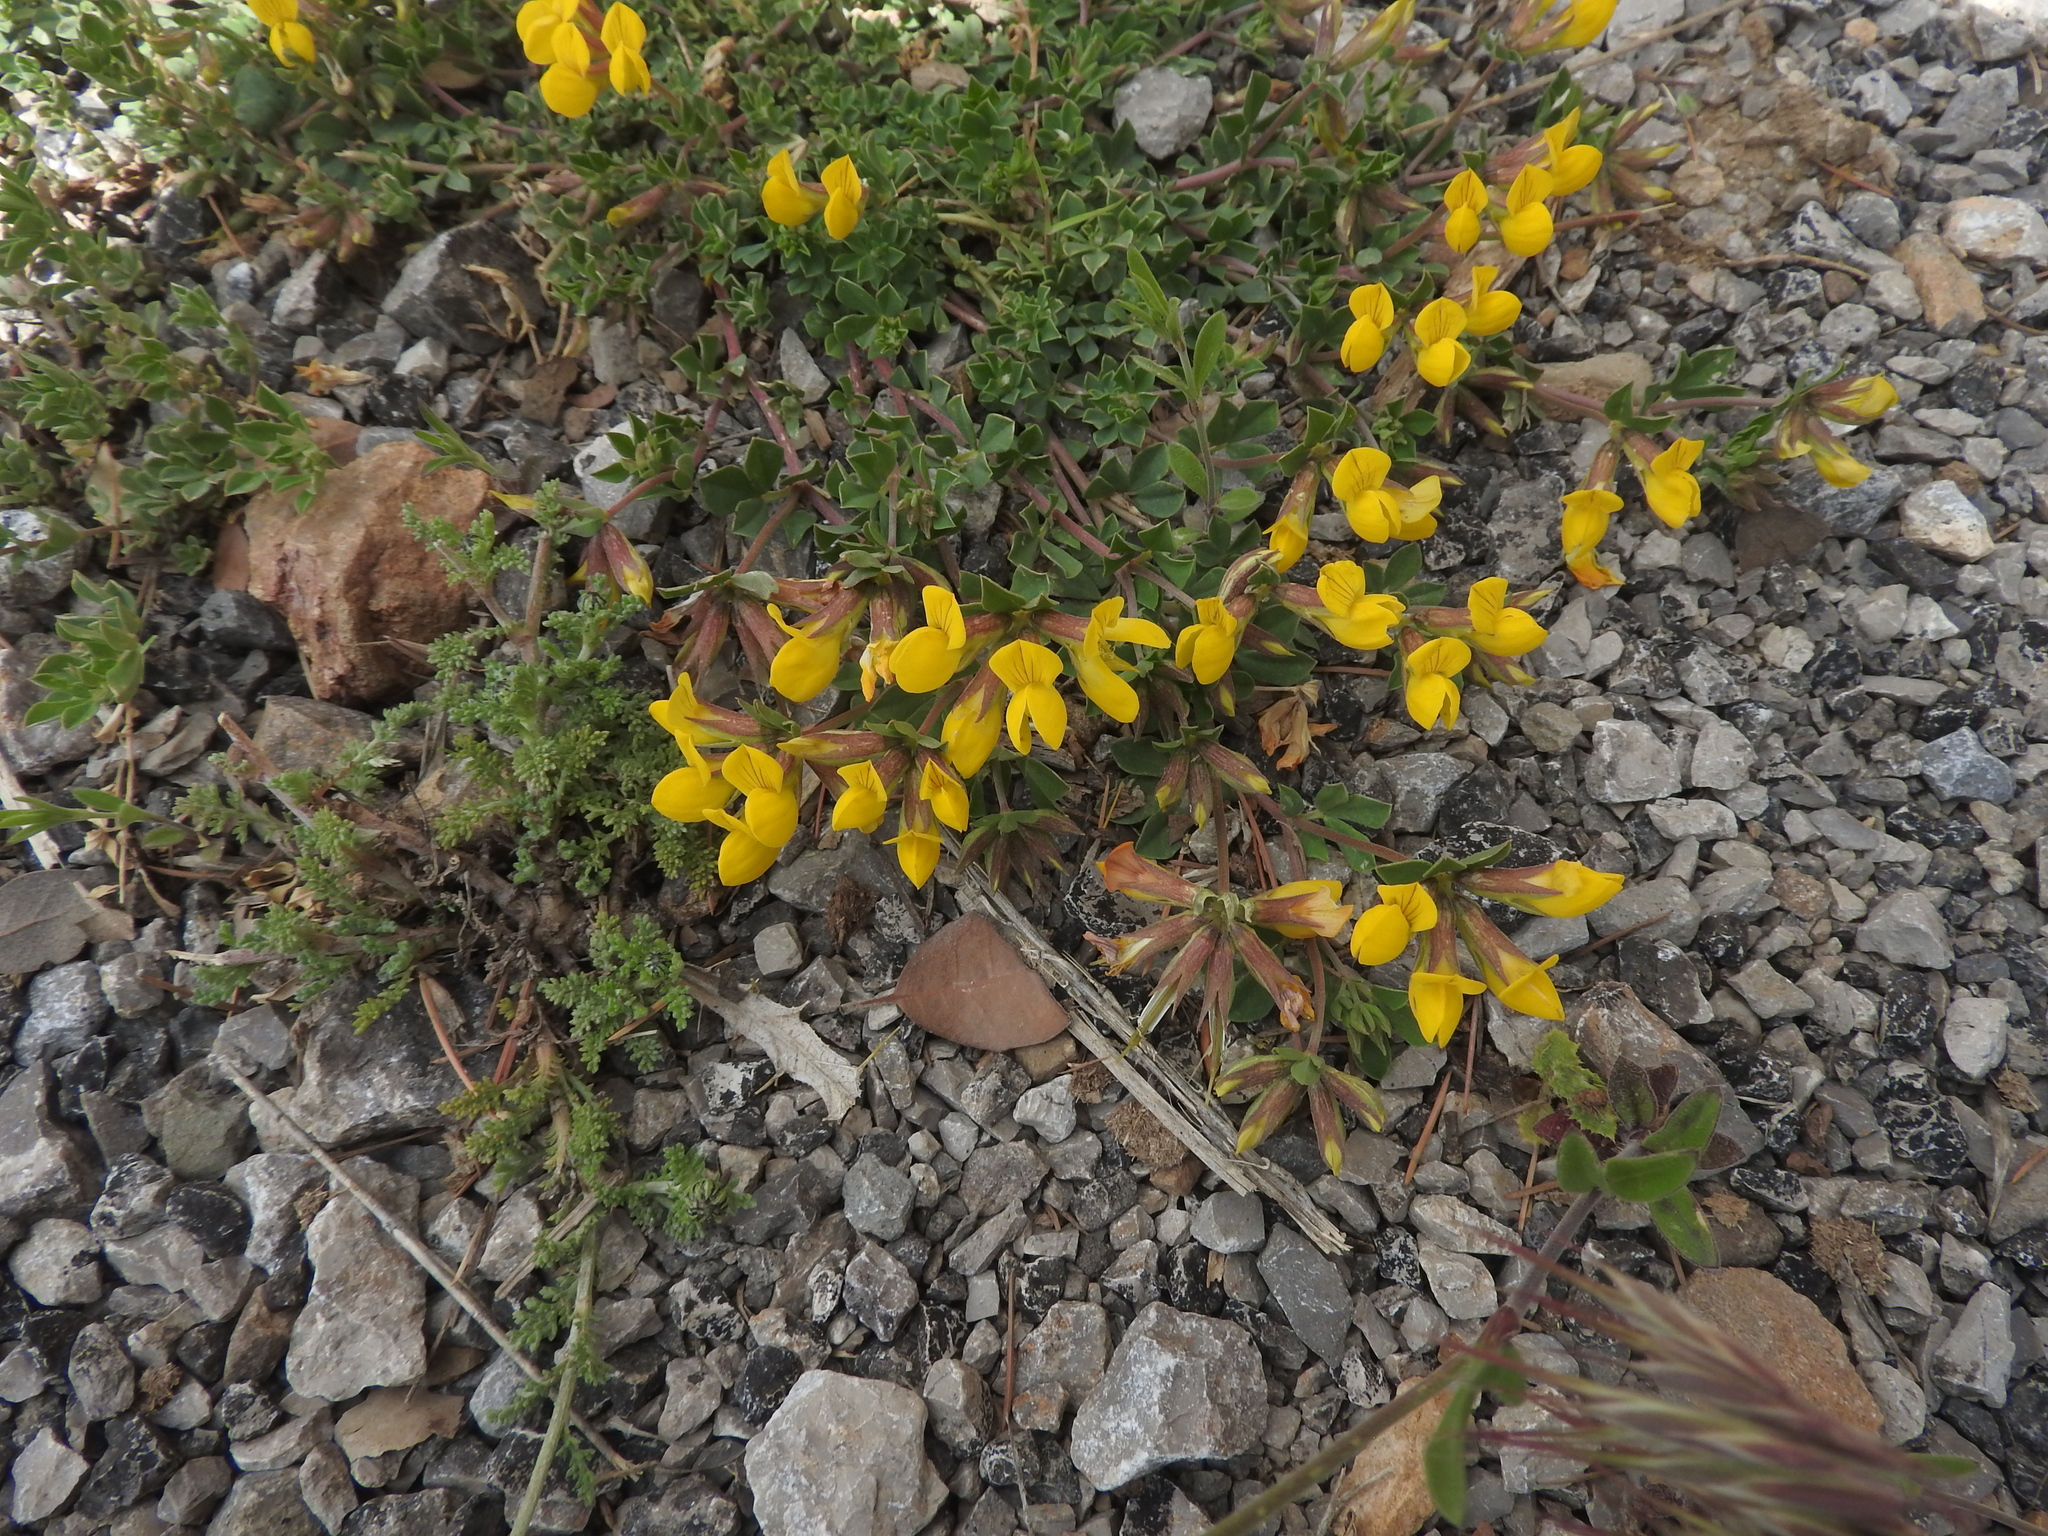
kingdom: Plantae
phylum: Tracheophyta
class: Magnoliopsida
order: Fabales
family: Fabaceae
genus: Lotus
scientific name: Lotus longisiliquosus
